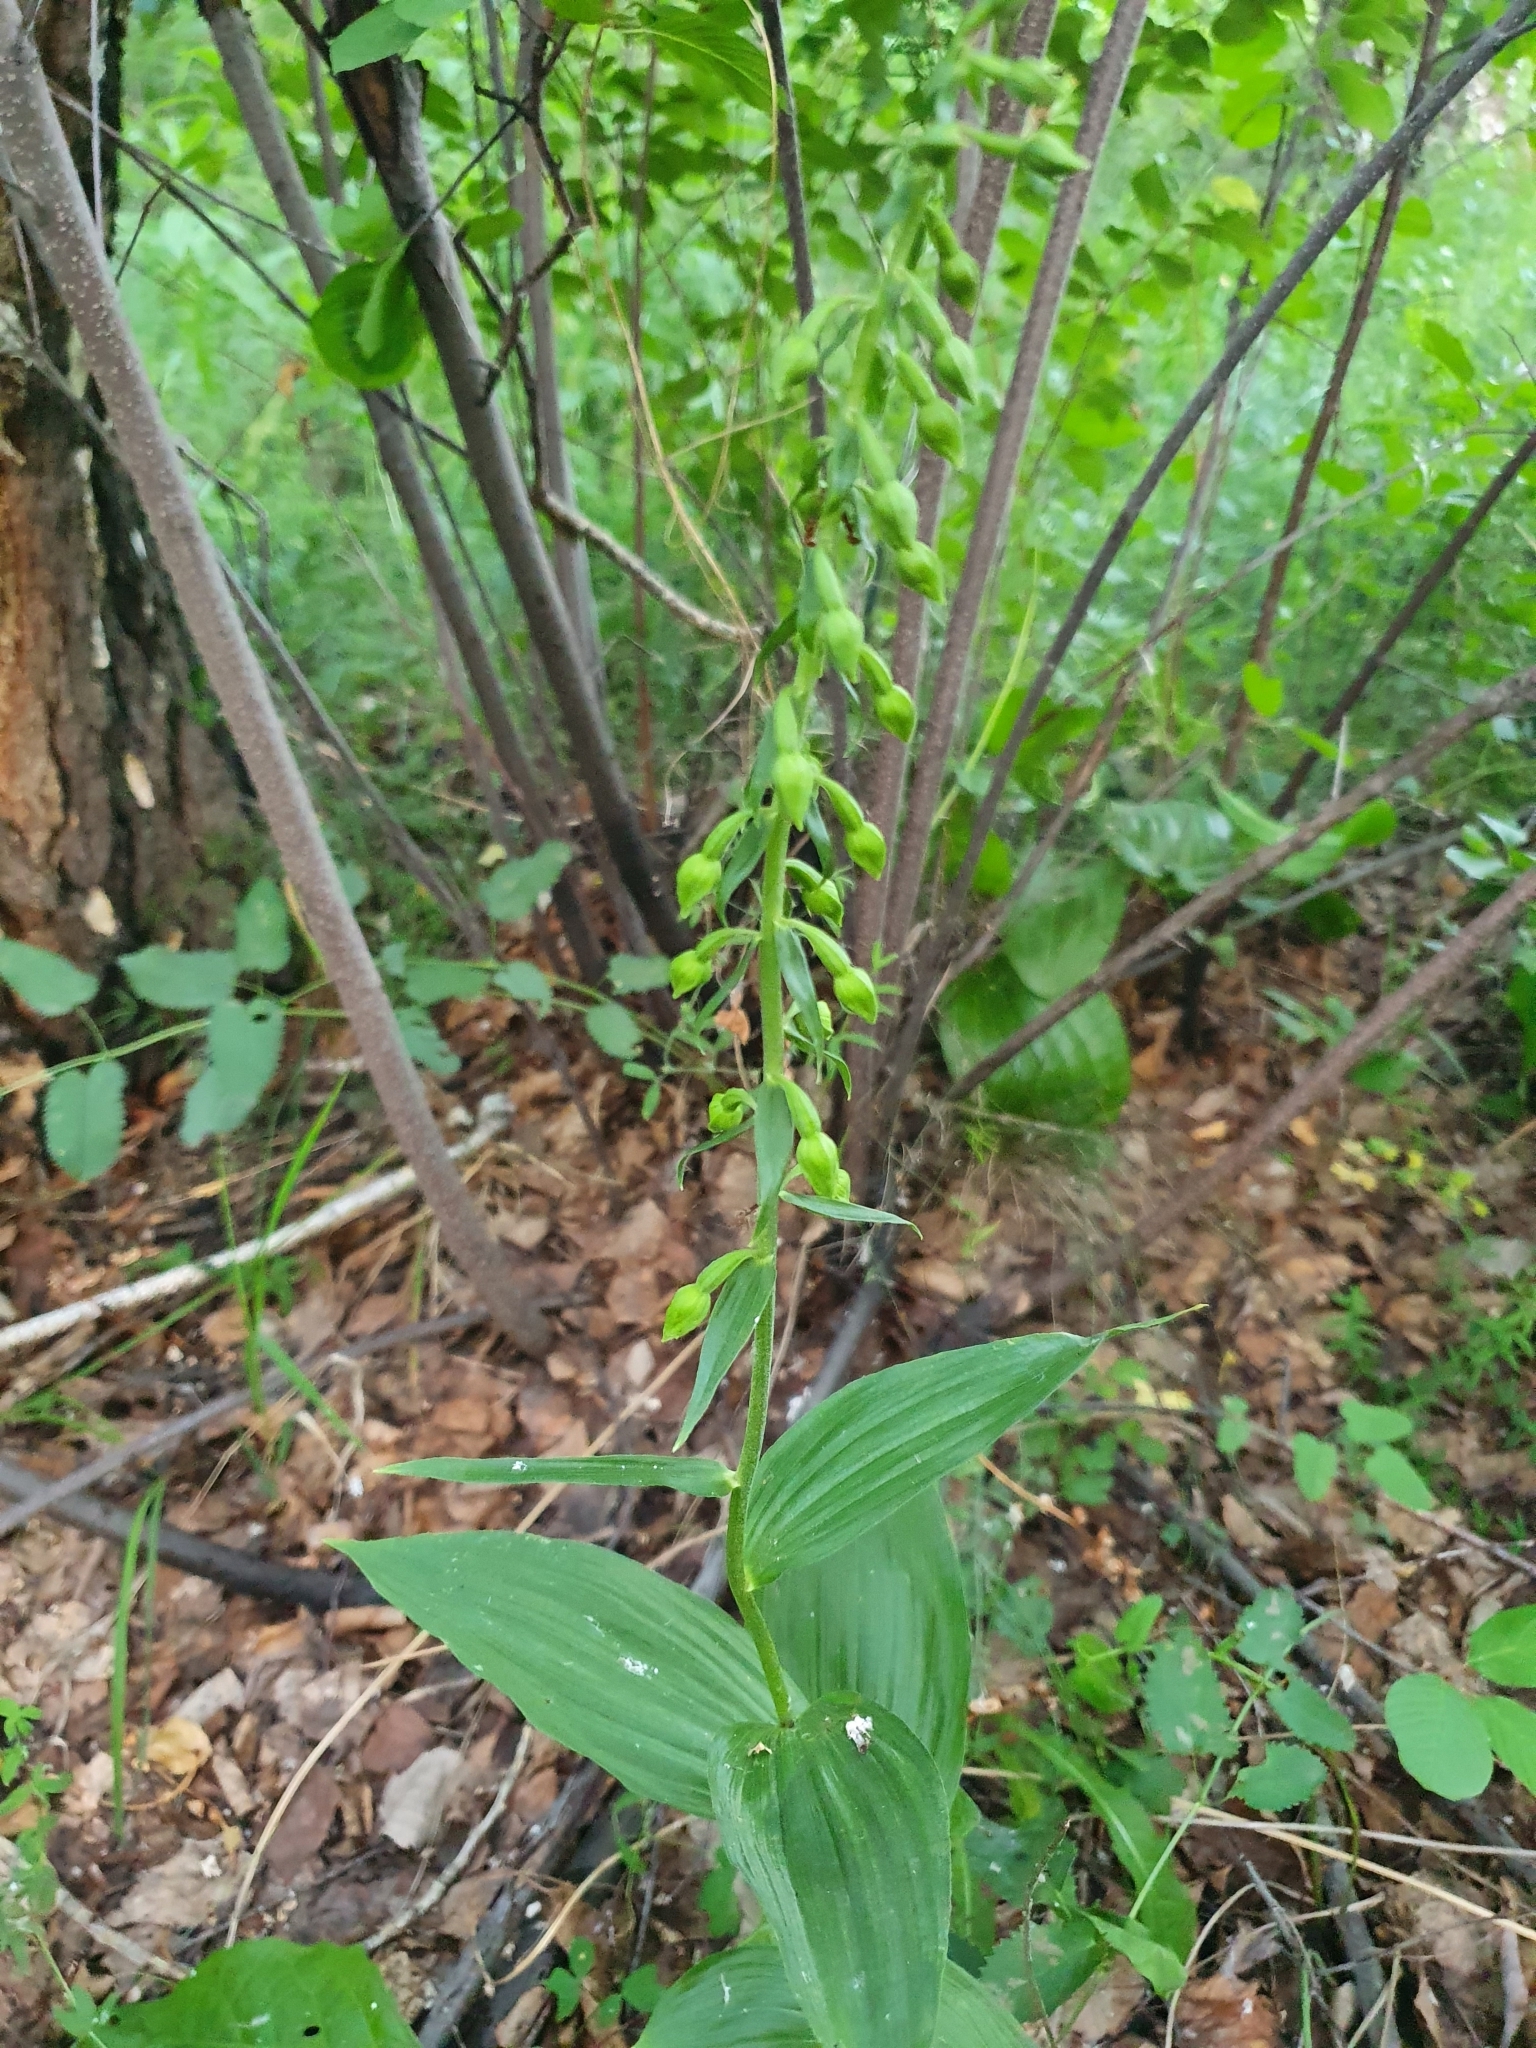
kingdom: Plantae
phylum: Tracheophyta
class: Liliopsida
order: Asparagales
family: Orchidaceae
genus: Epipactis
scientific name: Epipactis helleborine
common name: Broad-leaved helleborine
